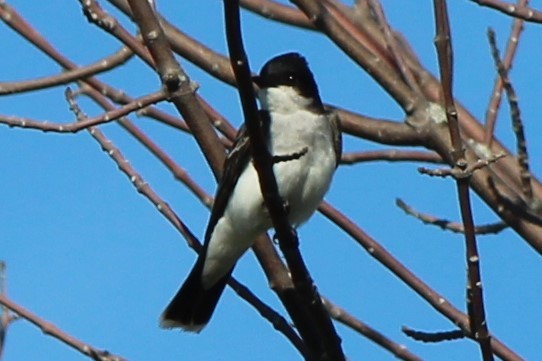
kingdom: Animalia
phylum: Chordata
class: Aves
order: Passeriformes
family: Tyrannidae
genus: Tyrannus
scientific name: Tyrannus tyrannus
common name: Eastern kingbird
